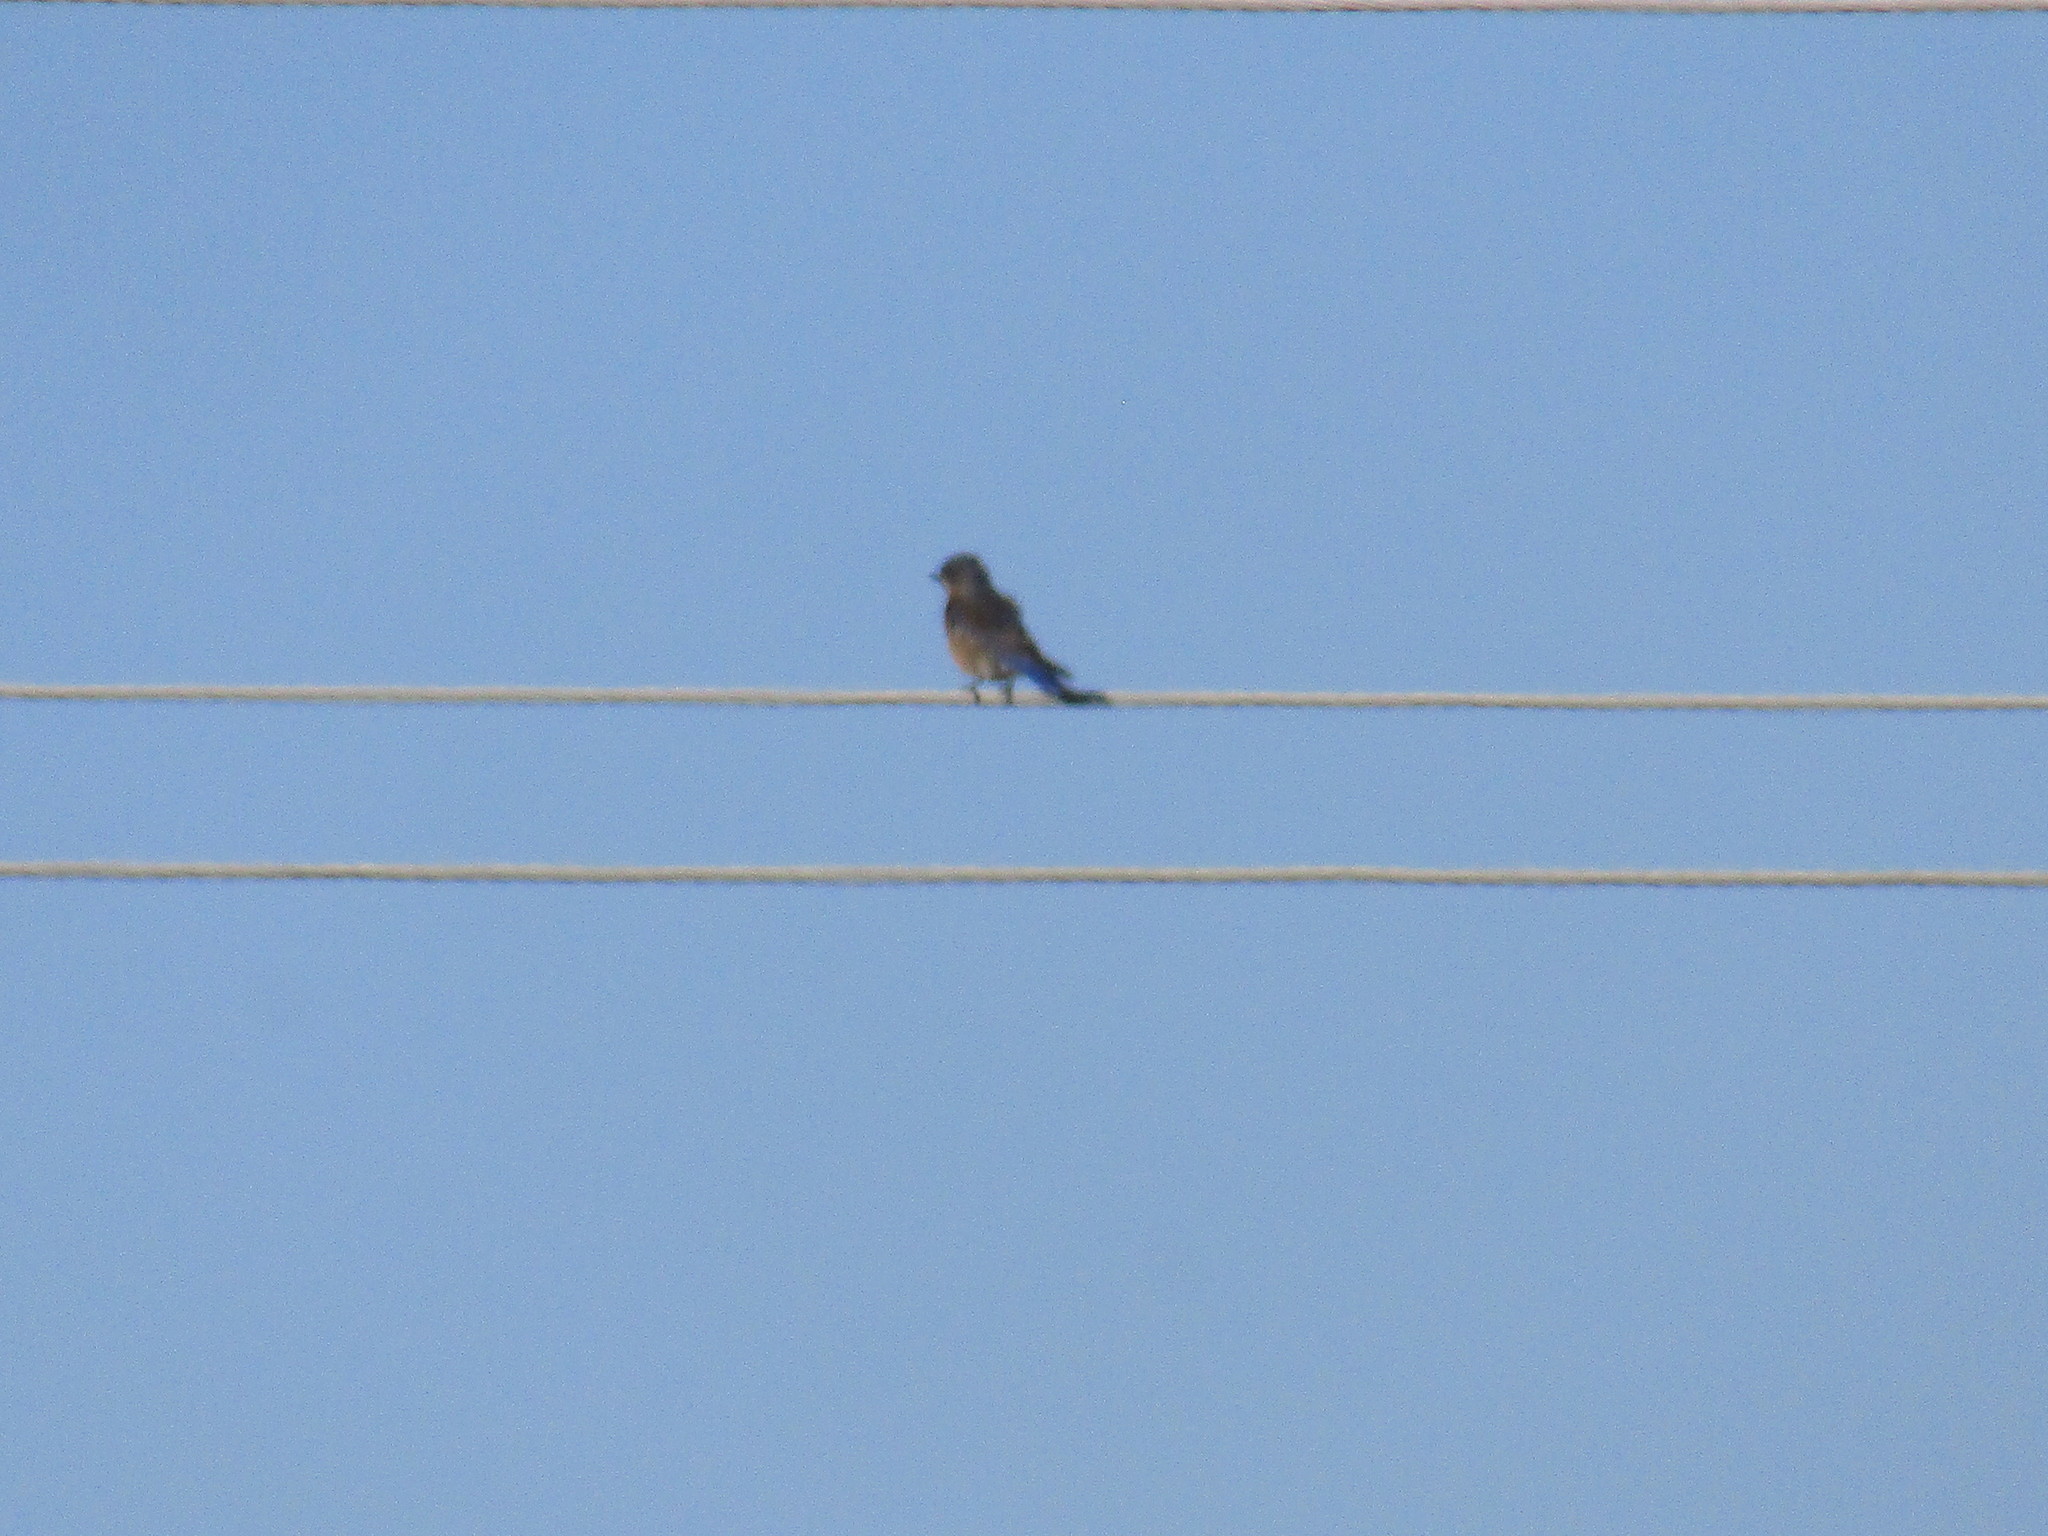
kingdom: Animalia
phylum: Chordata
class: Aves
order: Passeriformes
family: Turdidae
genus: Sialia
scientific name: Sialia sialis
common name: Eastern bluebird
